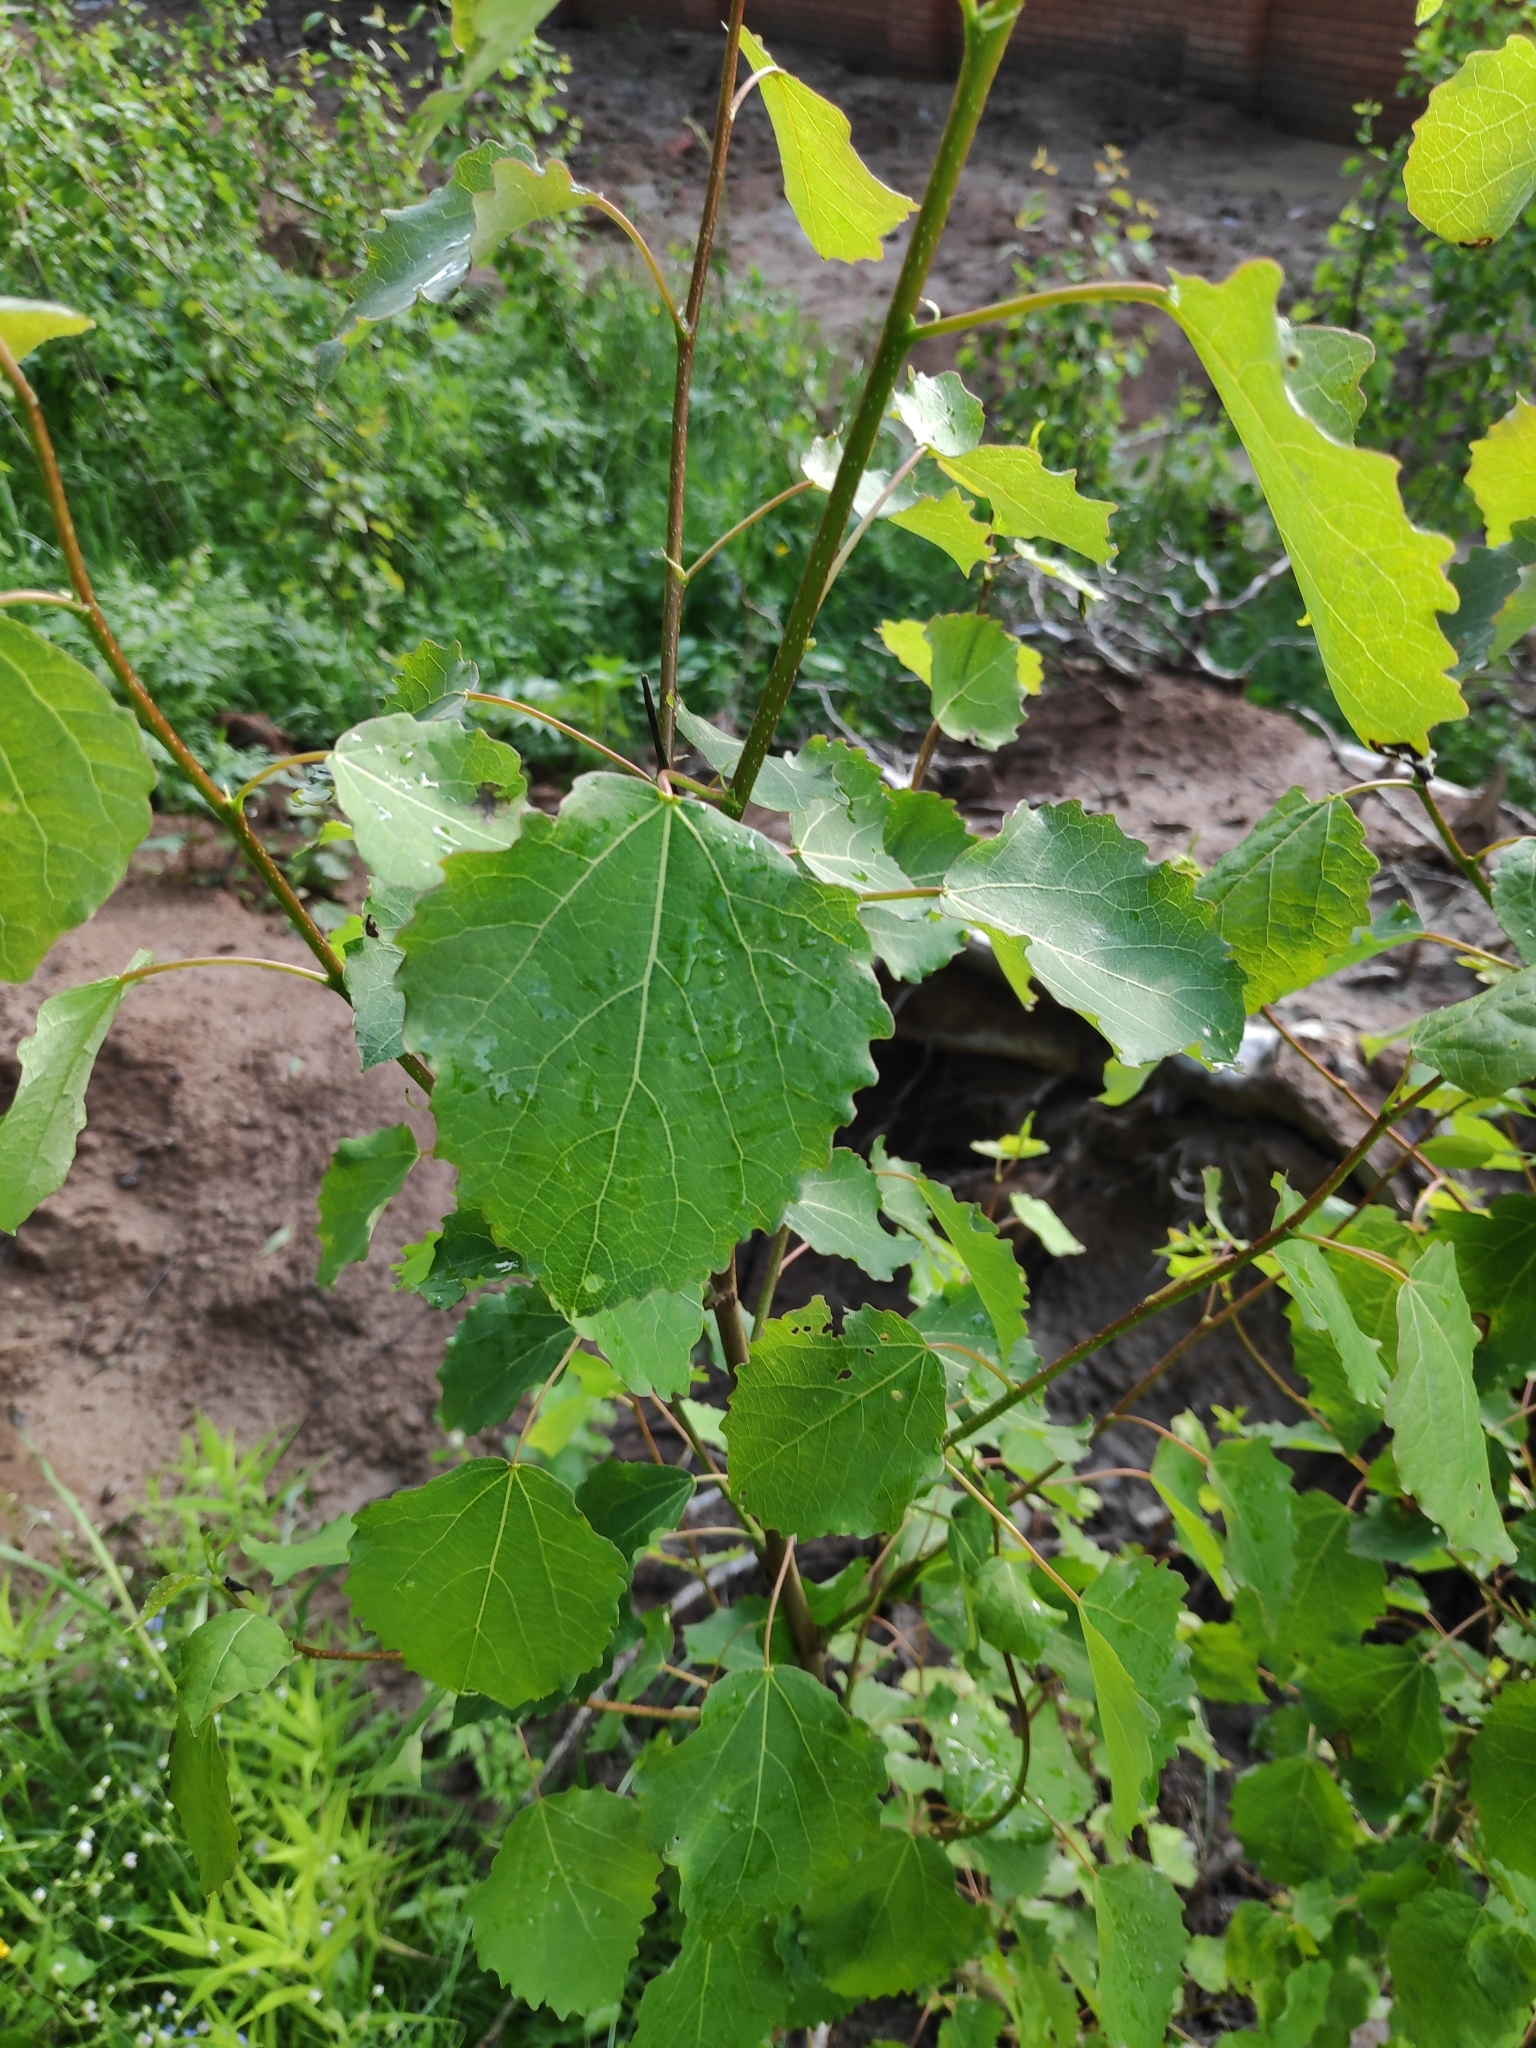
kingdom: Plantae
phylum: Tracheophyta
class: Magnoliopsida
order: Malpighiales
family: Salicaceae
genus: Populus
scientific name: Populus tremula
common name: European aspen
